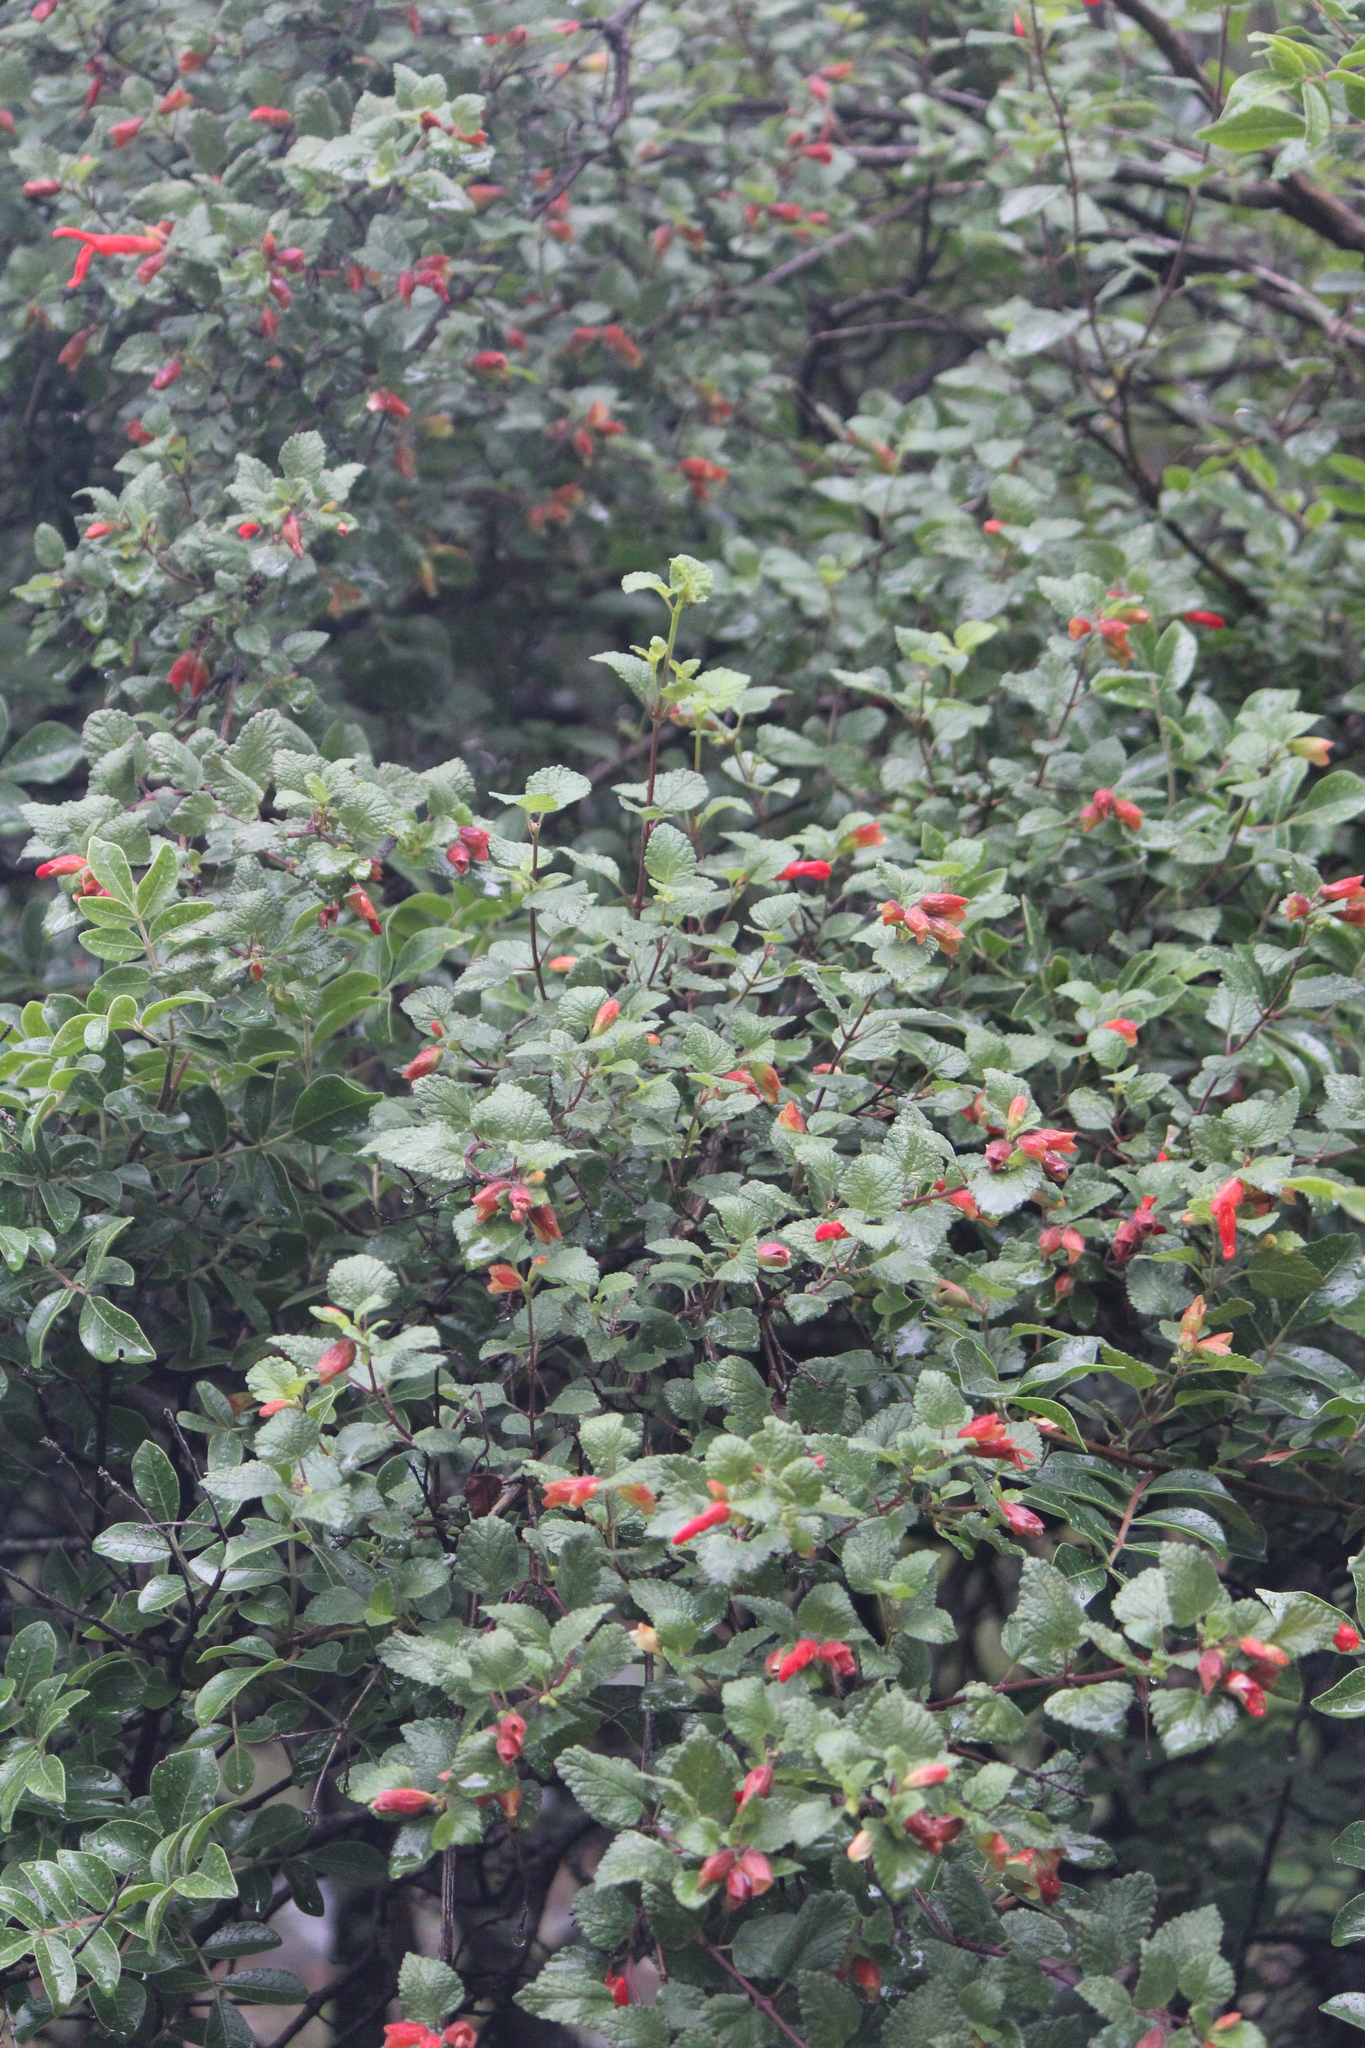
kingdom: Plantae
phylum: Tracheophyta
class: Magnoliopsida
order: Lamiales
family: Lamiaceae
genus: Salvia
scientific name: Salvia regla
